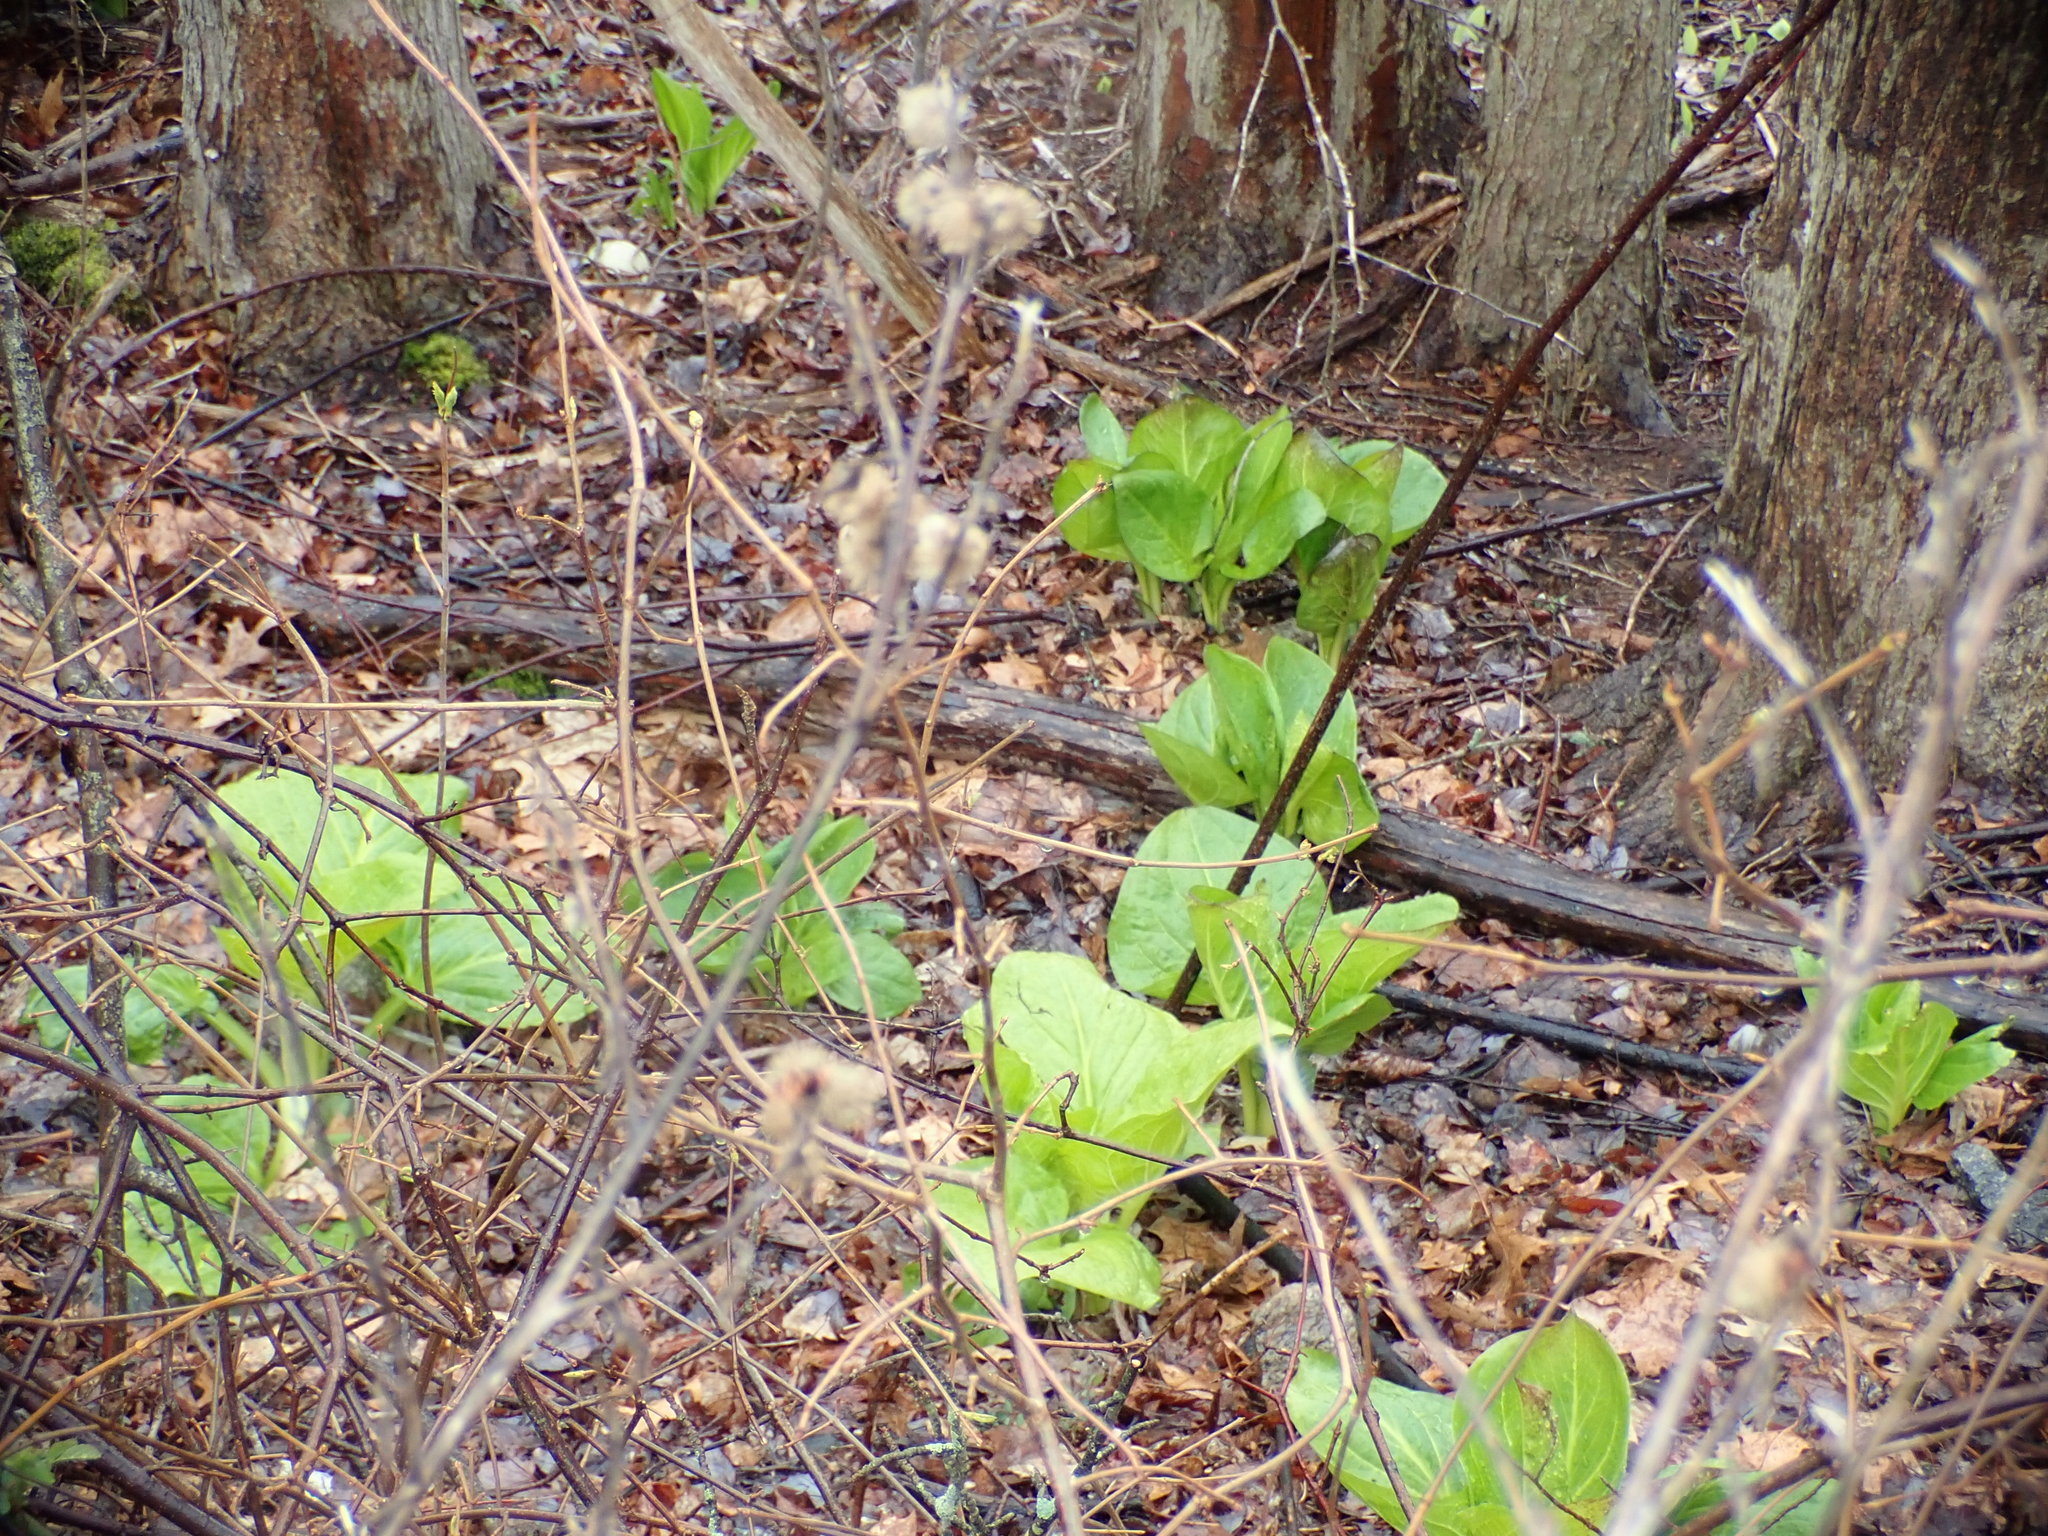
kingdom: Plantae
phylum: Tracheophyta
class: Liliopsida
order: Alismatales
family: Araceae
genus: Symplocarpus
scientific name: Symplocarpus foetidus
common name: Eastern skunk cabbage
